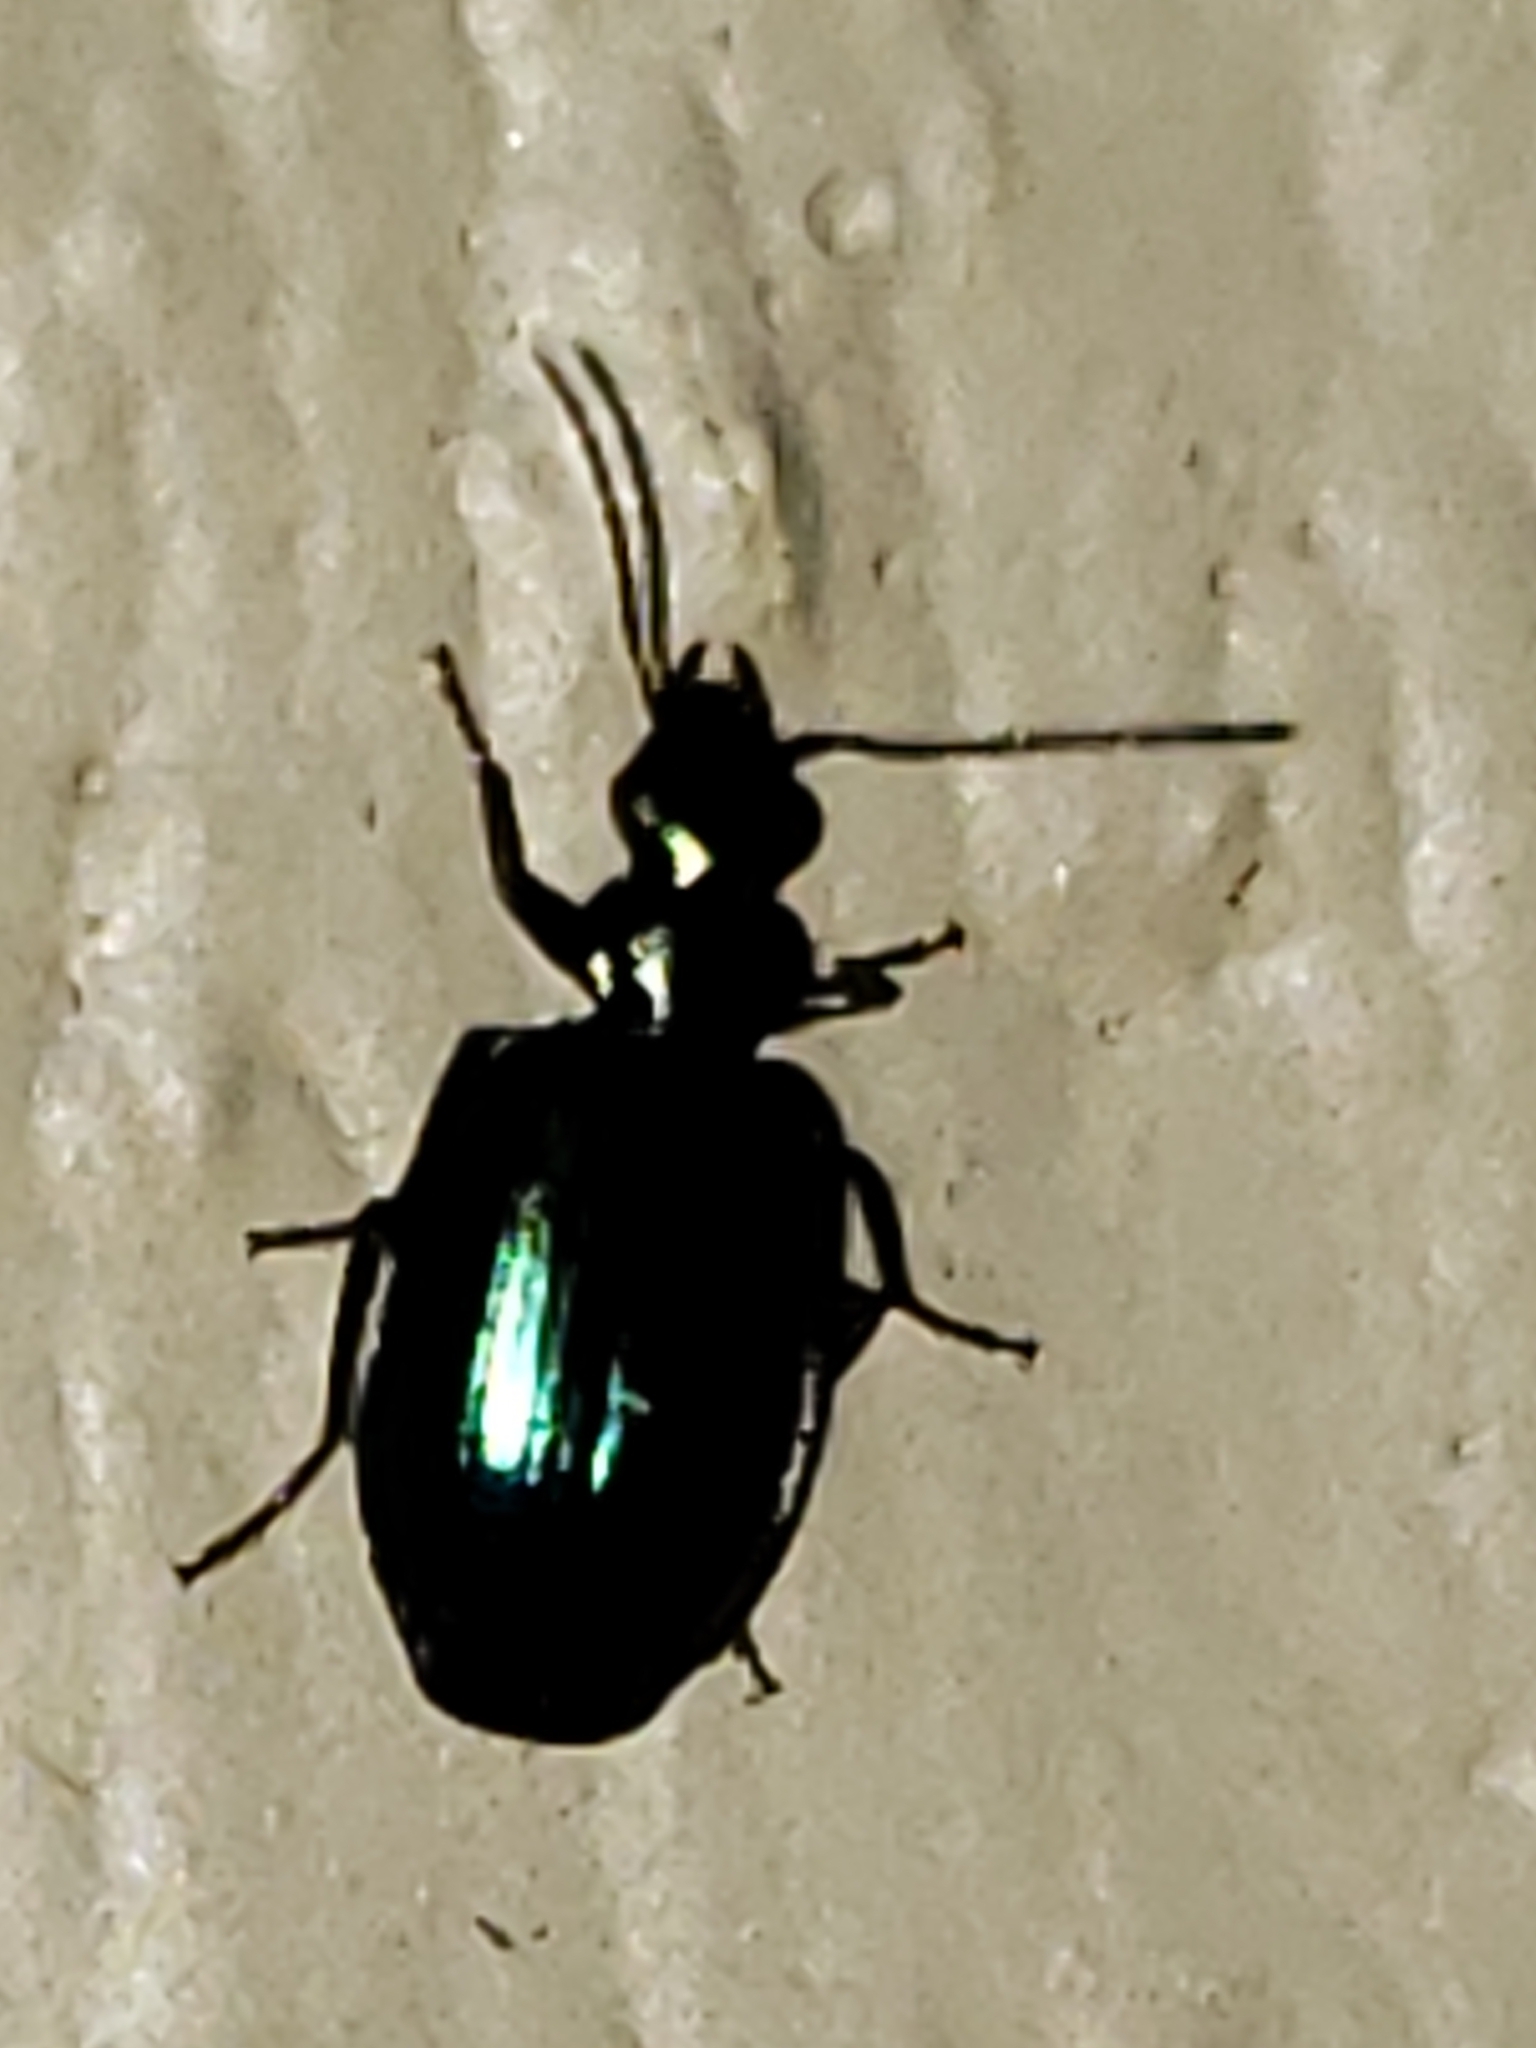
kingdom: Animalia
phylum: Arthropoda
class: Insecta
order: Coleoptera
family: Carabidae
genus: Lebia
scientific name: Lebia viridis
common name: Flower lebia beetle
